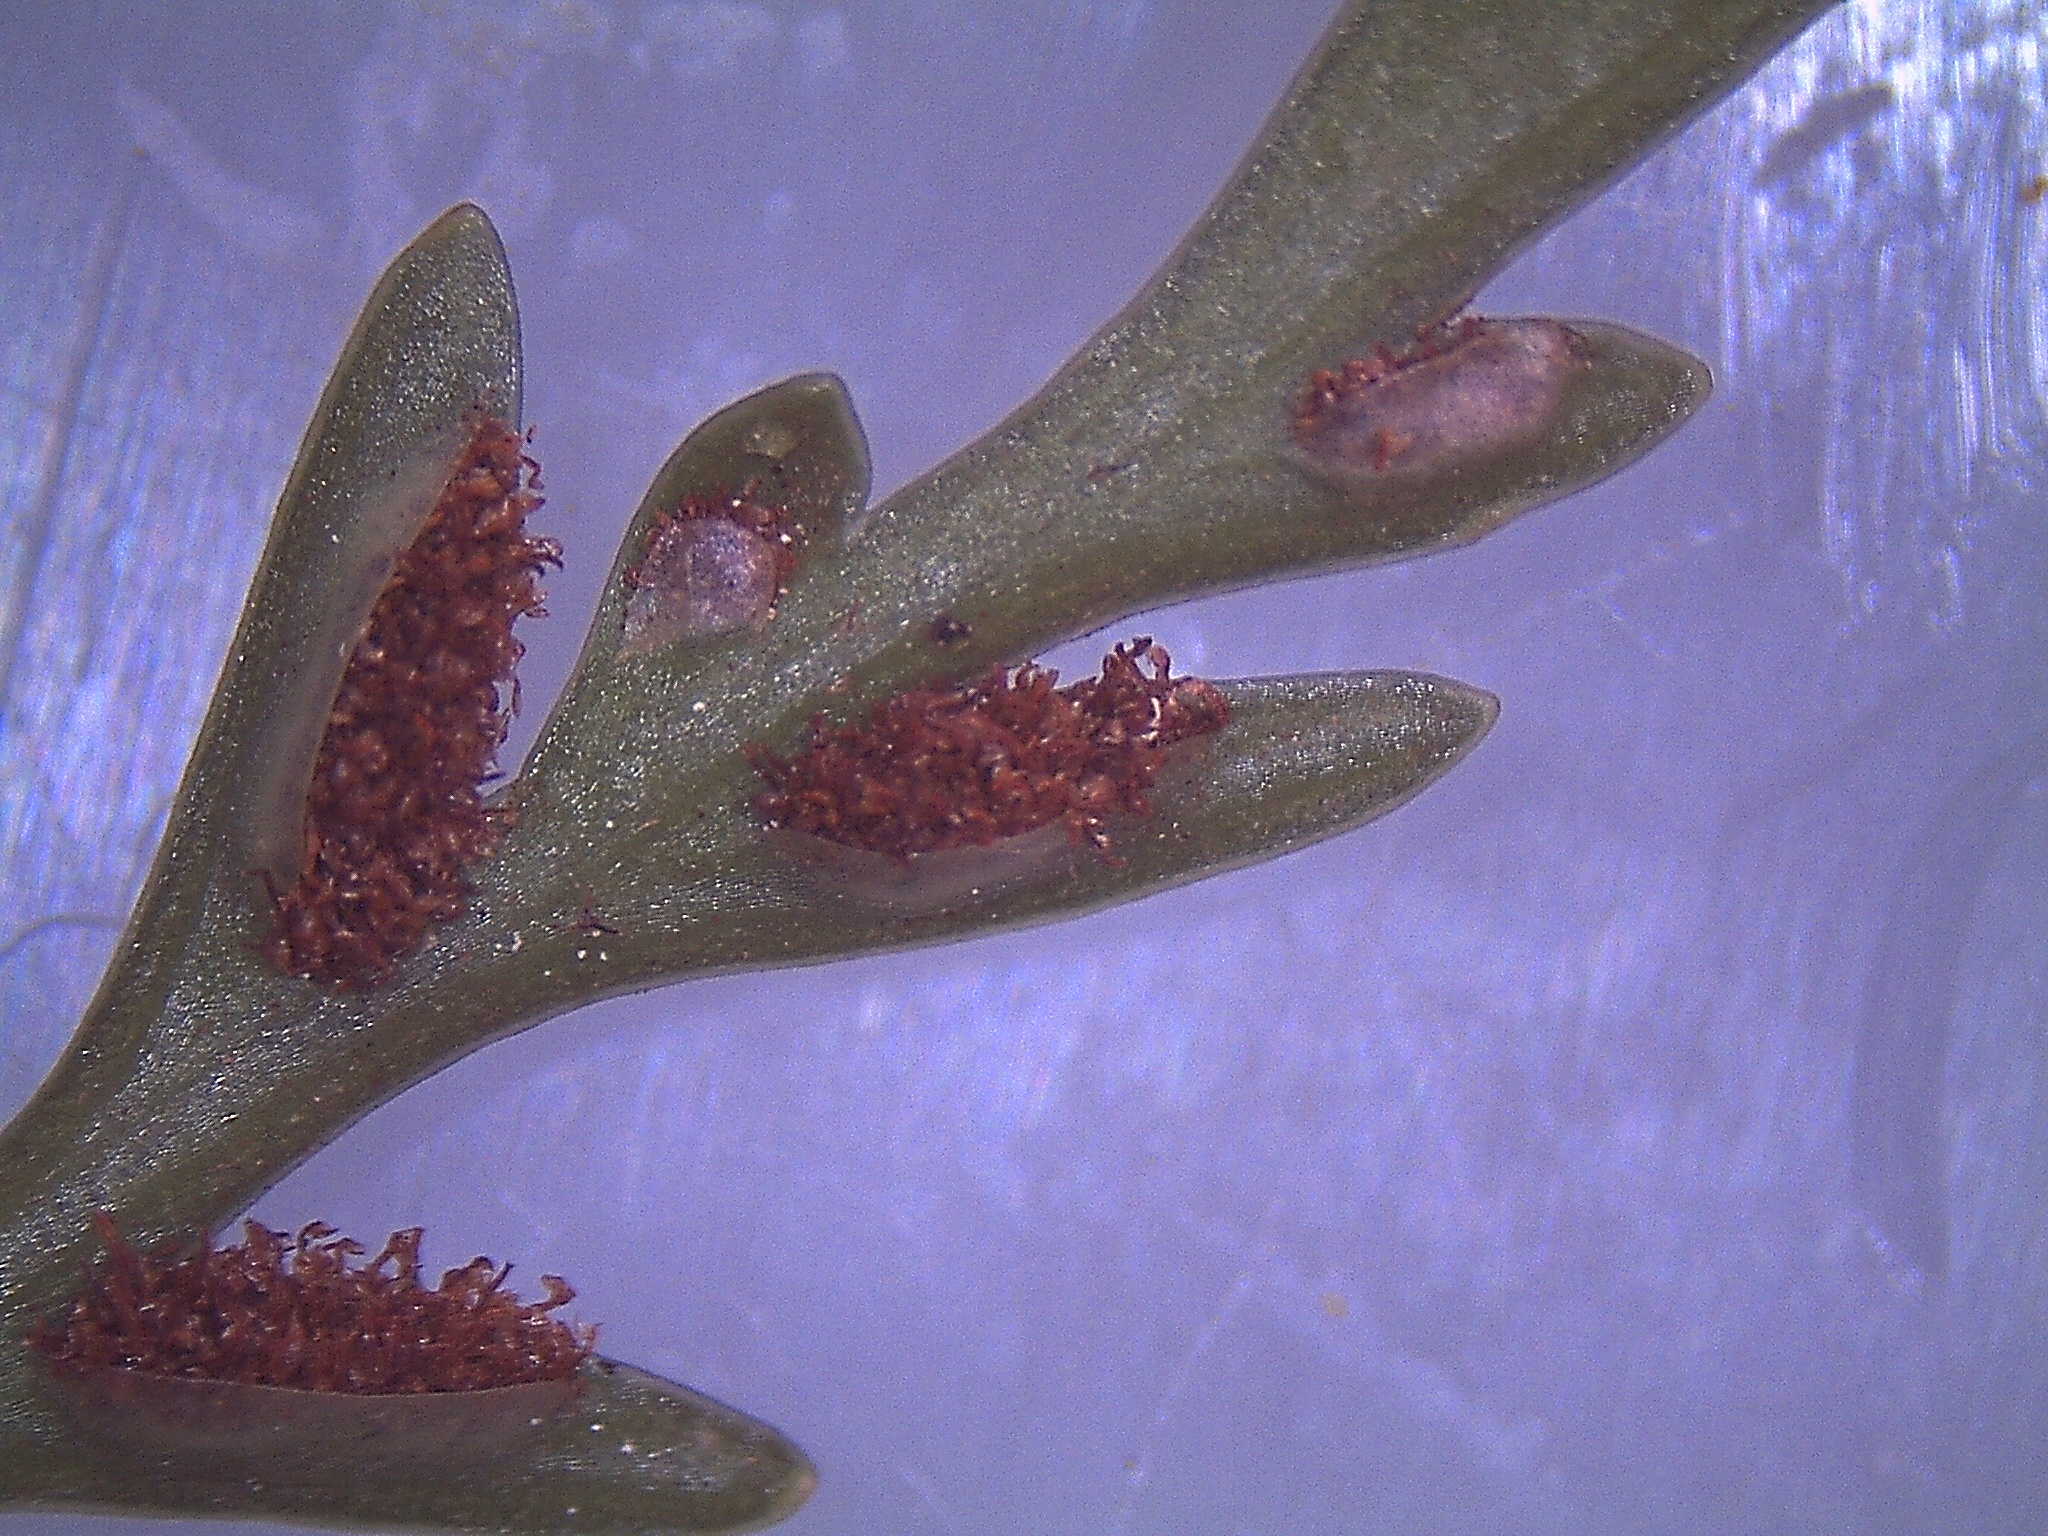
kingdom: Plantae
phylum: Tracheophyta
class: Polypodiopsida
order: Polypodiales
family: Aspleniaceae
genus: Asplenium
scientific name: Asplenium appendiculatum
